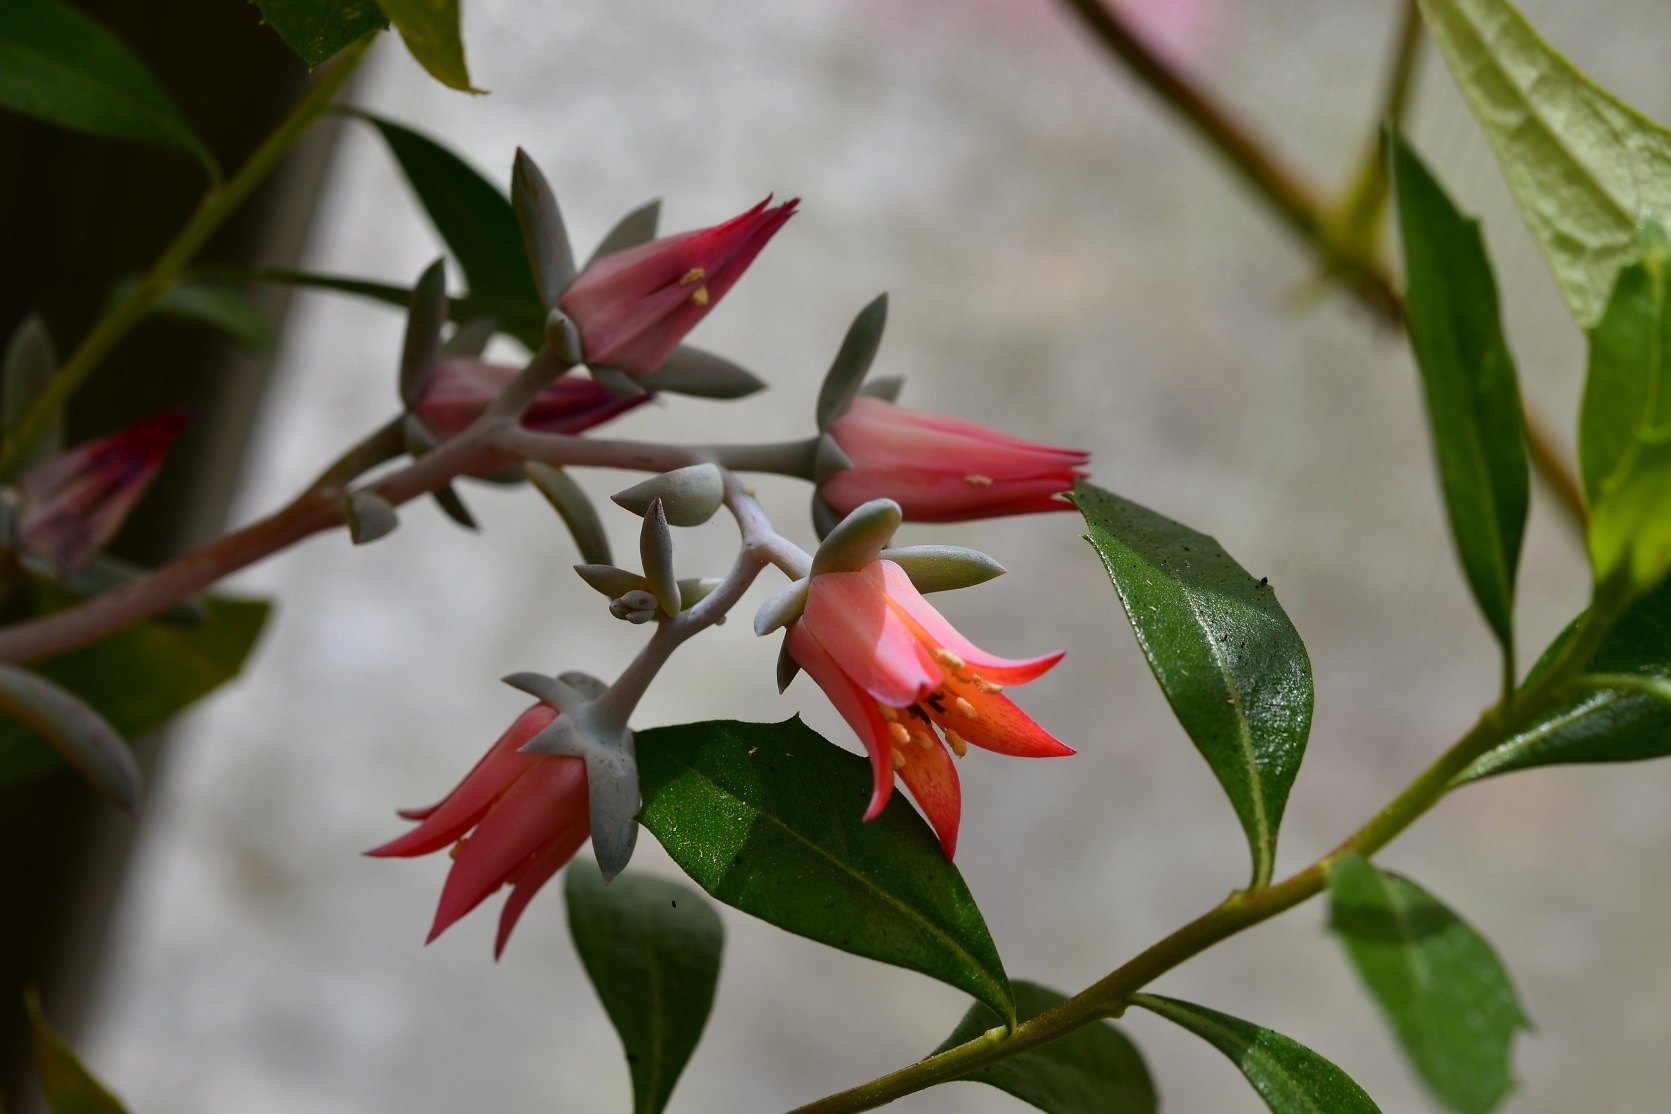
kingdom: Plantae
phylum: Tracheophyta
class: Magnoliopsida
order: Saxifragales
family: Crassulaceae
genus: Echeveria
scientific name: Echeveria prunina
